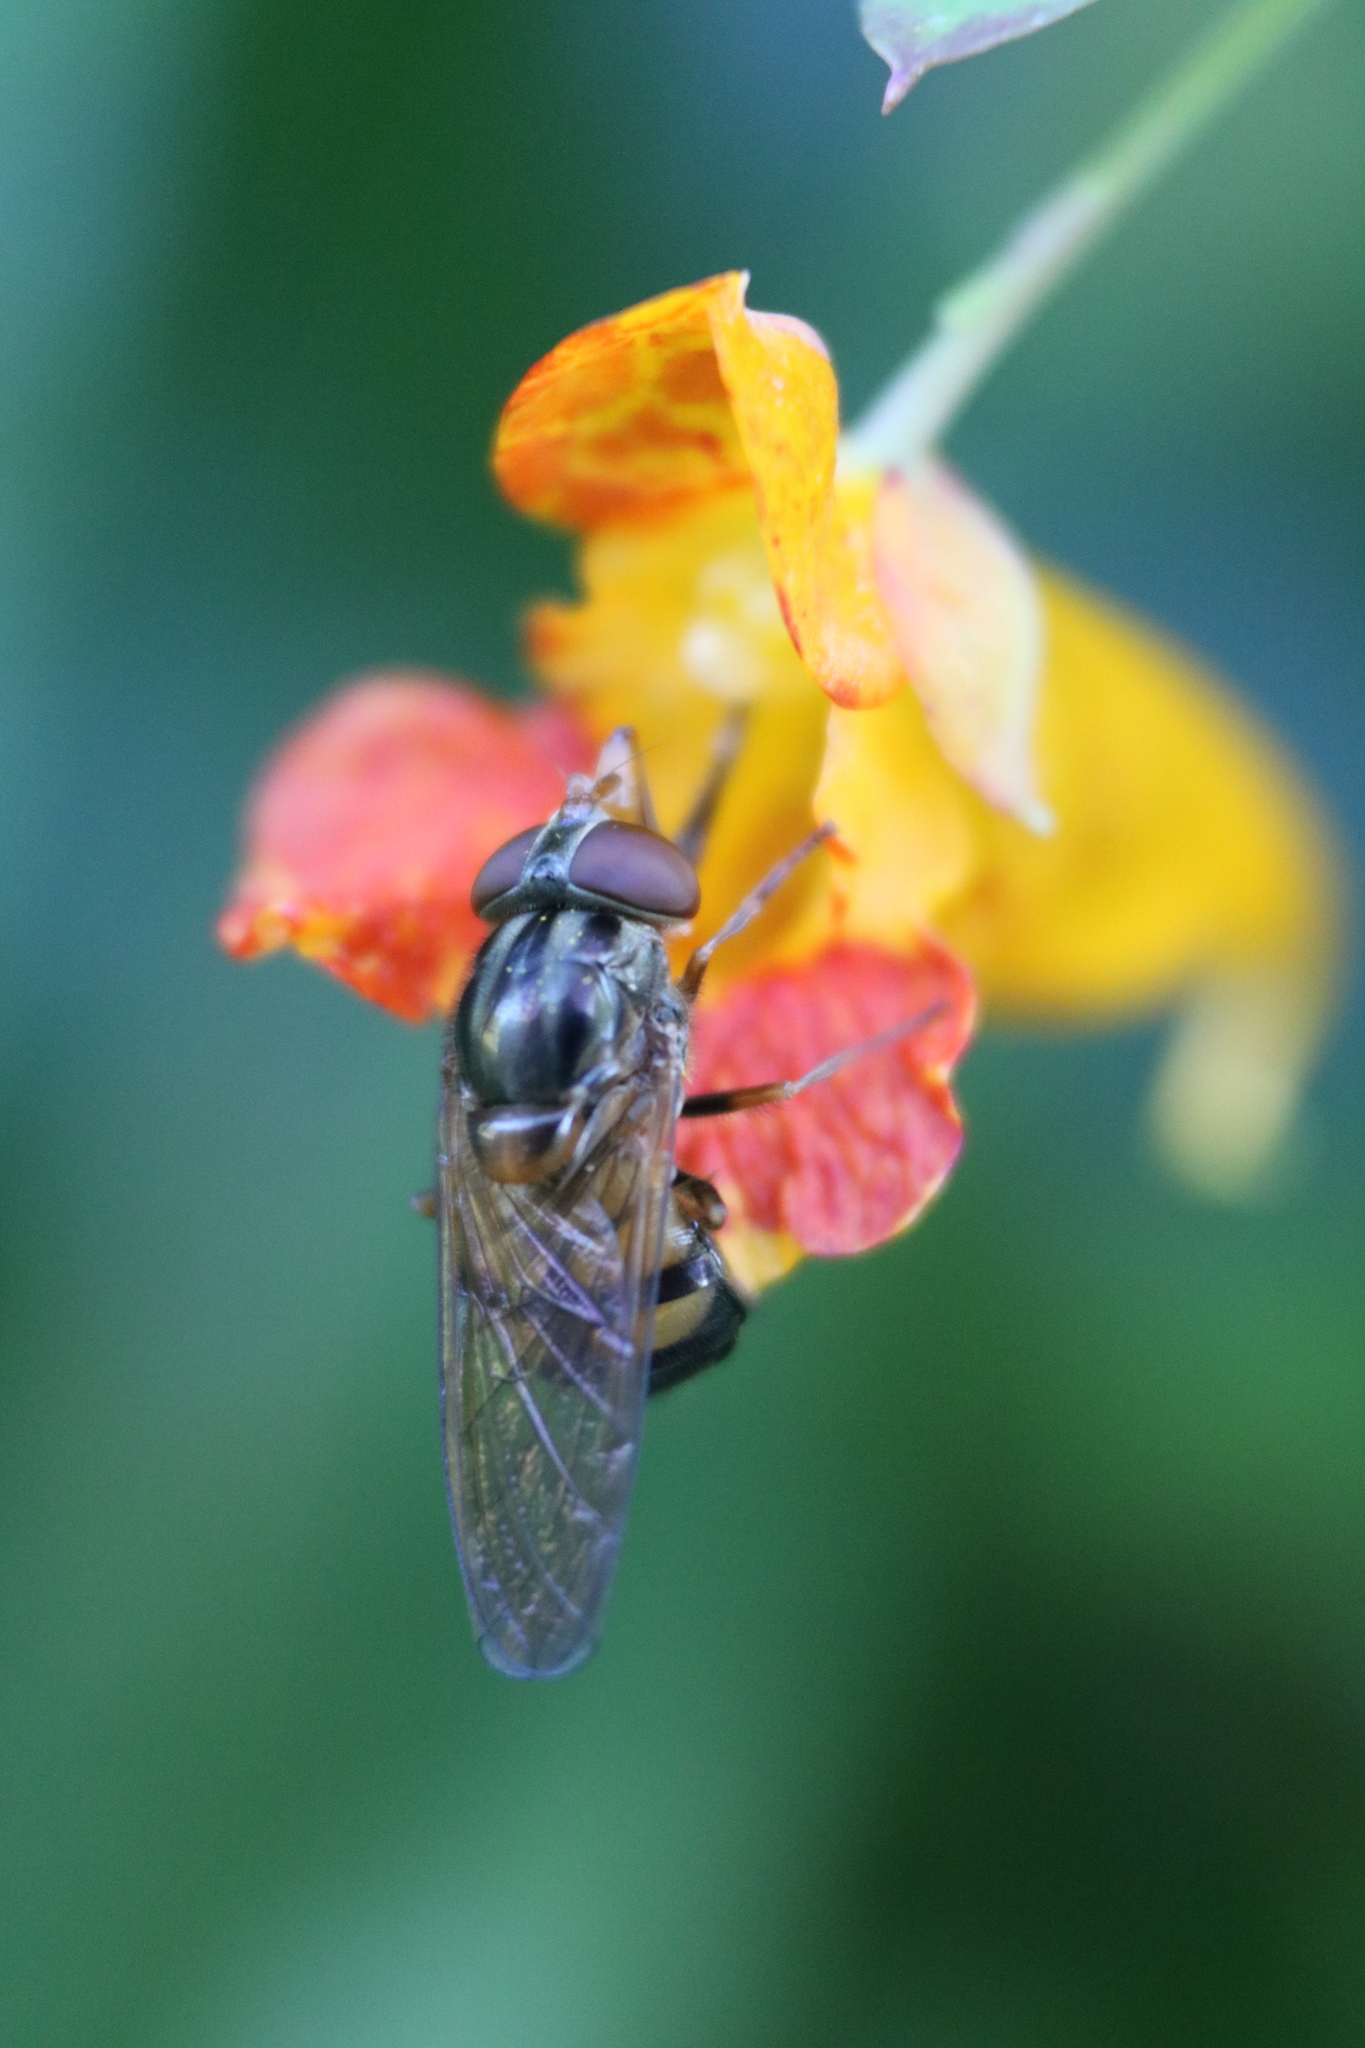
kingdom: Animalia
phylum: Arthropoda
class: Insecta
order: Diptera
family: Syrphidae
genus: Rhingia
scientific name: Rhingia nasica
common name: American snout fly
